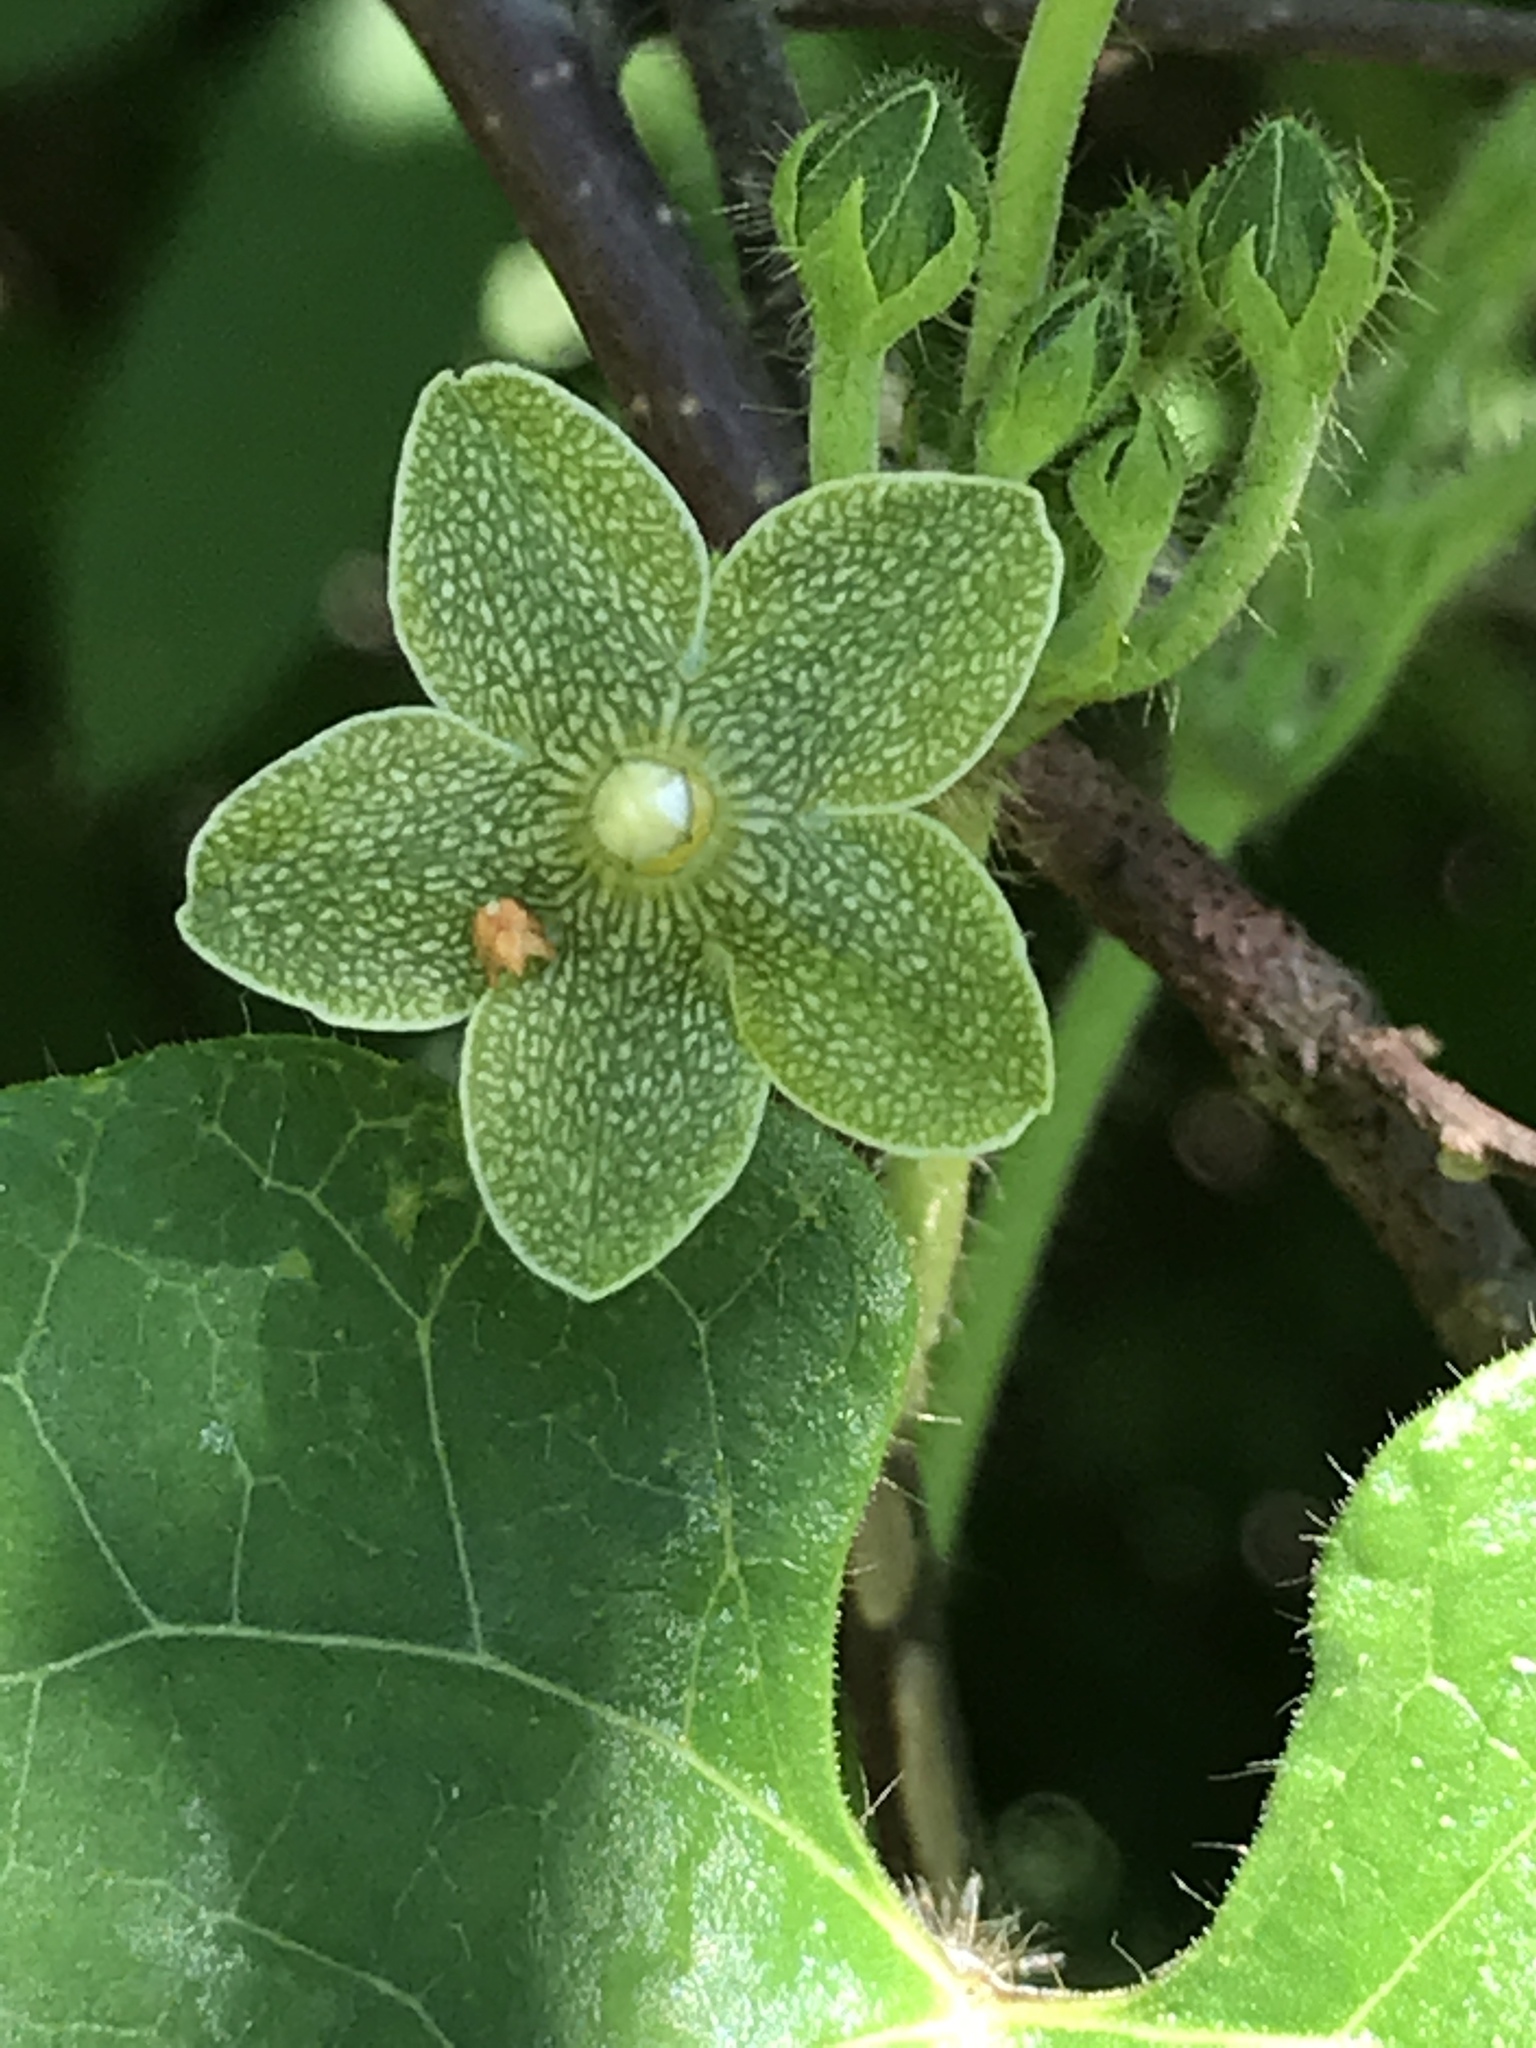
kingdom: Plantae
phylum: Tracheophyta
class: Magnoliopsida
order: Gentianales
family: Apocynaceae
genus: Dictyanthus
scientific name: Dictyanthus reticulatus
